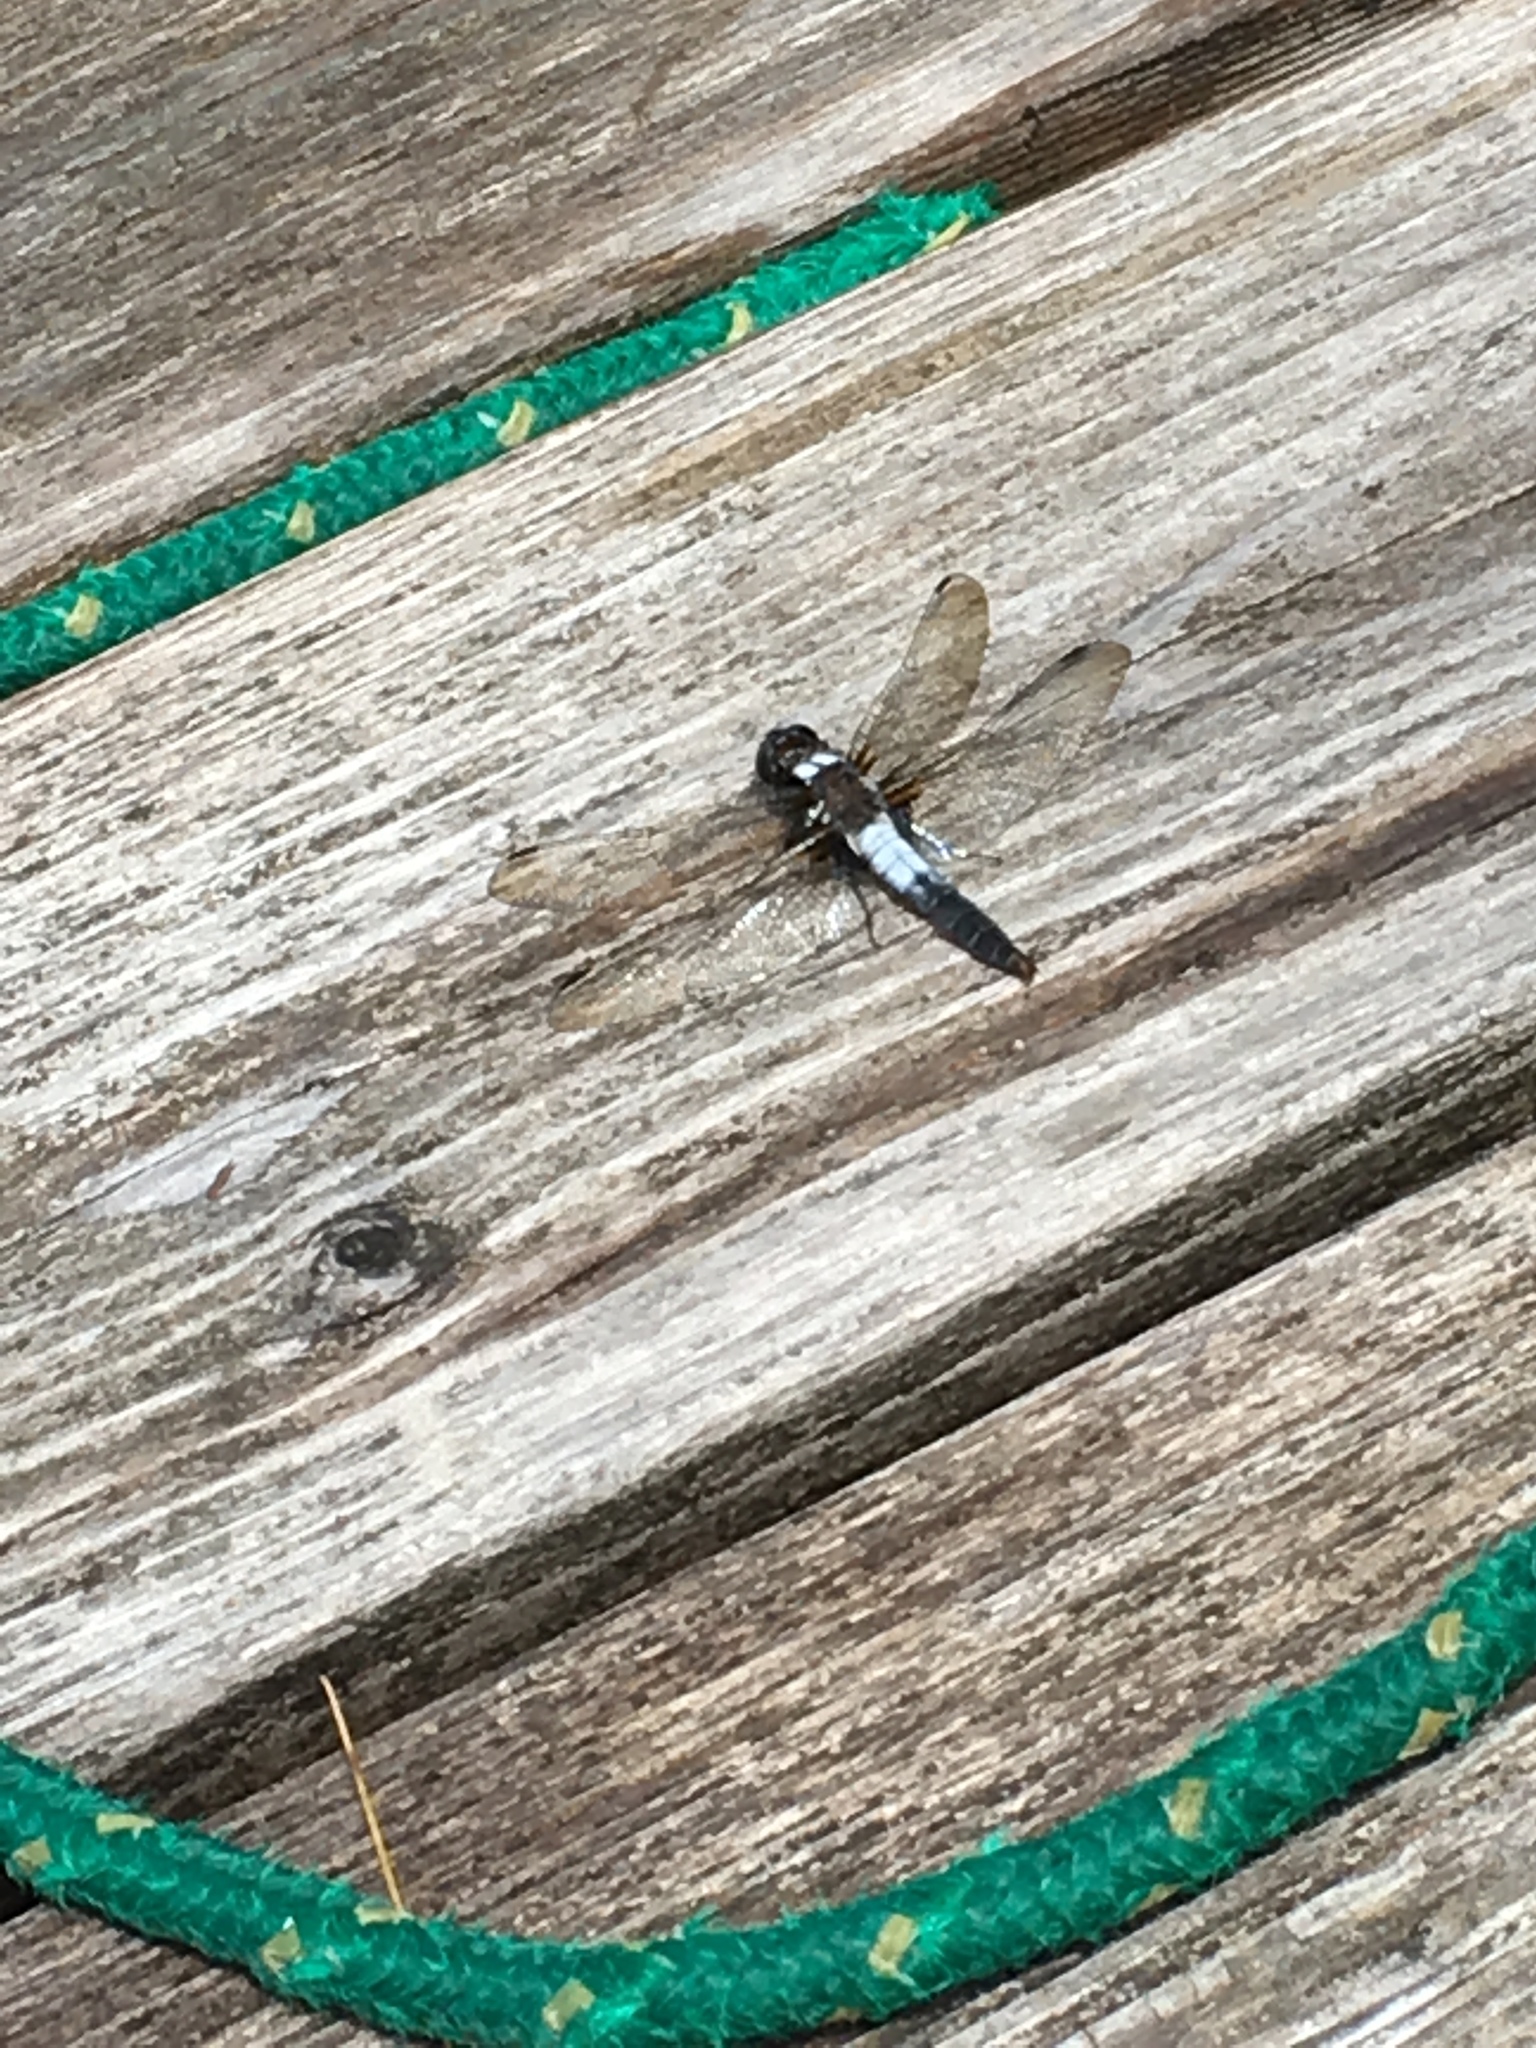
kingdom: Animalia
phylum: Arthropoda
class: Insecta
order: Odonata
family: Libellulidae
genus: Ladona
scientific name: Ladona julia
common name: Chalk-fronted corporal
